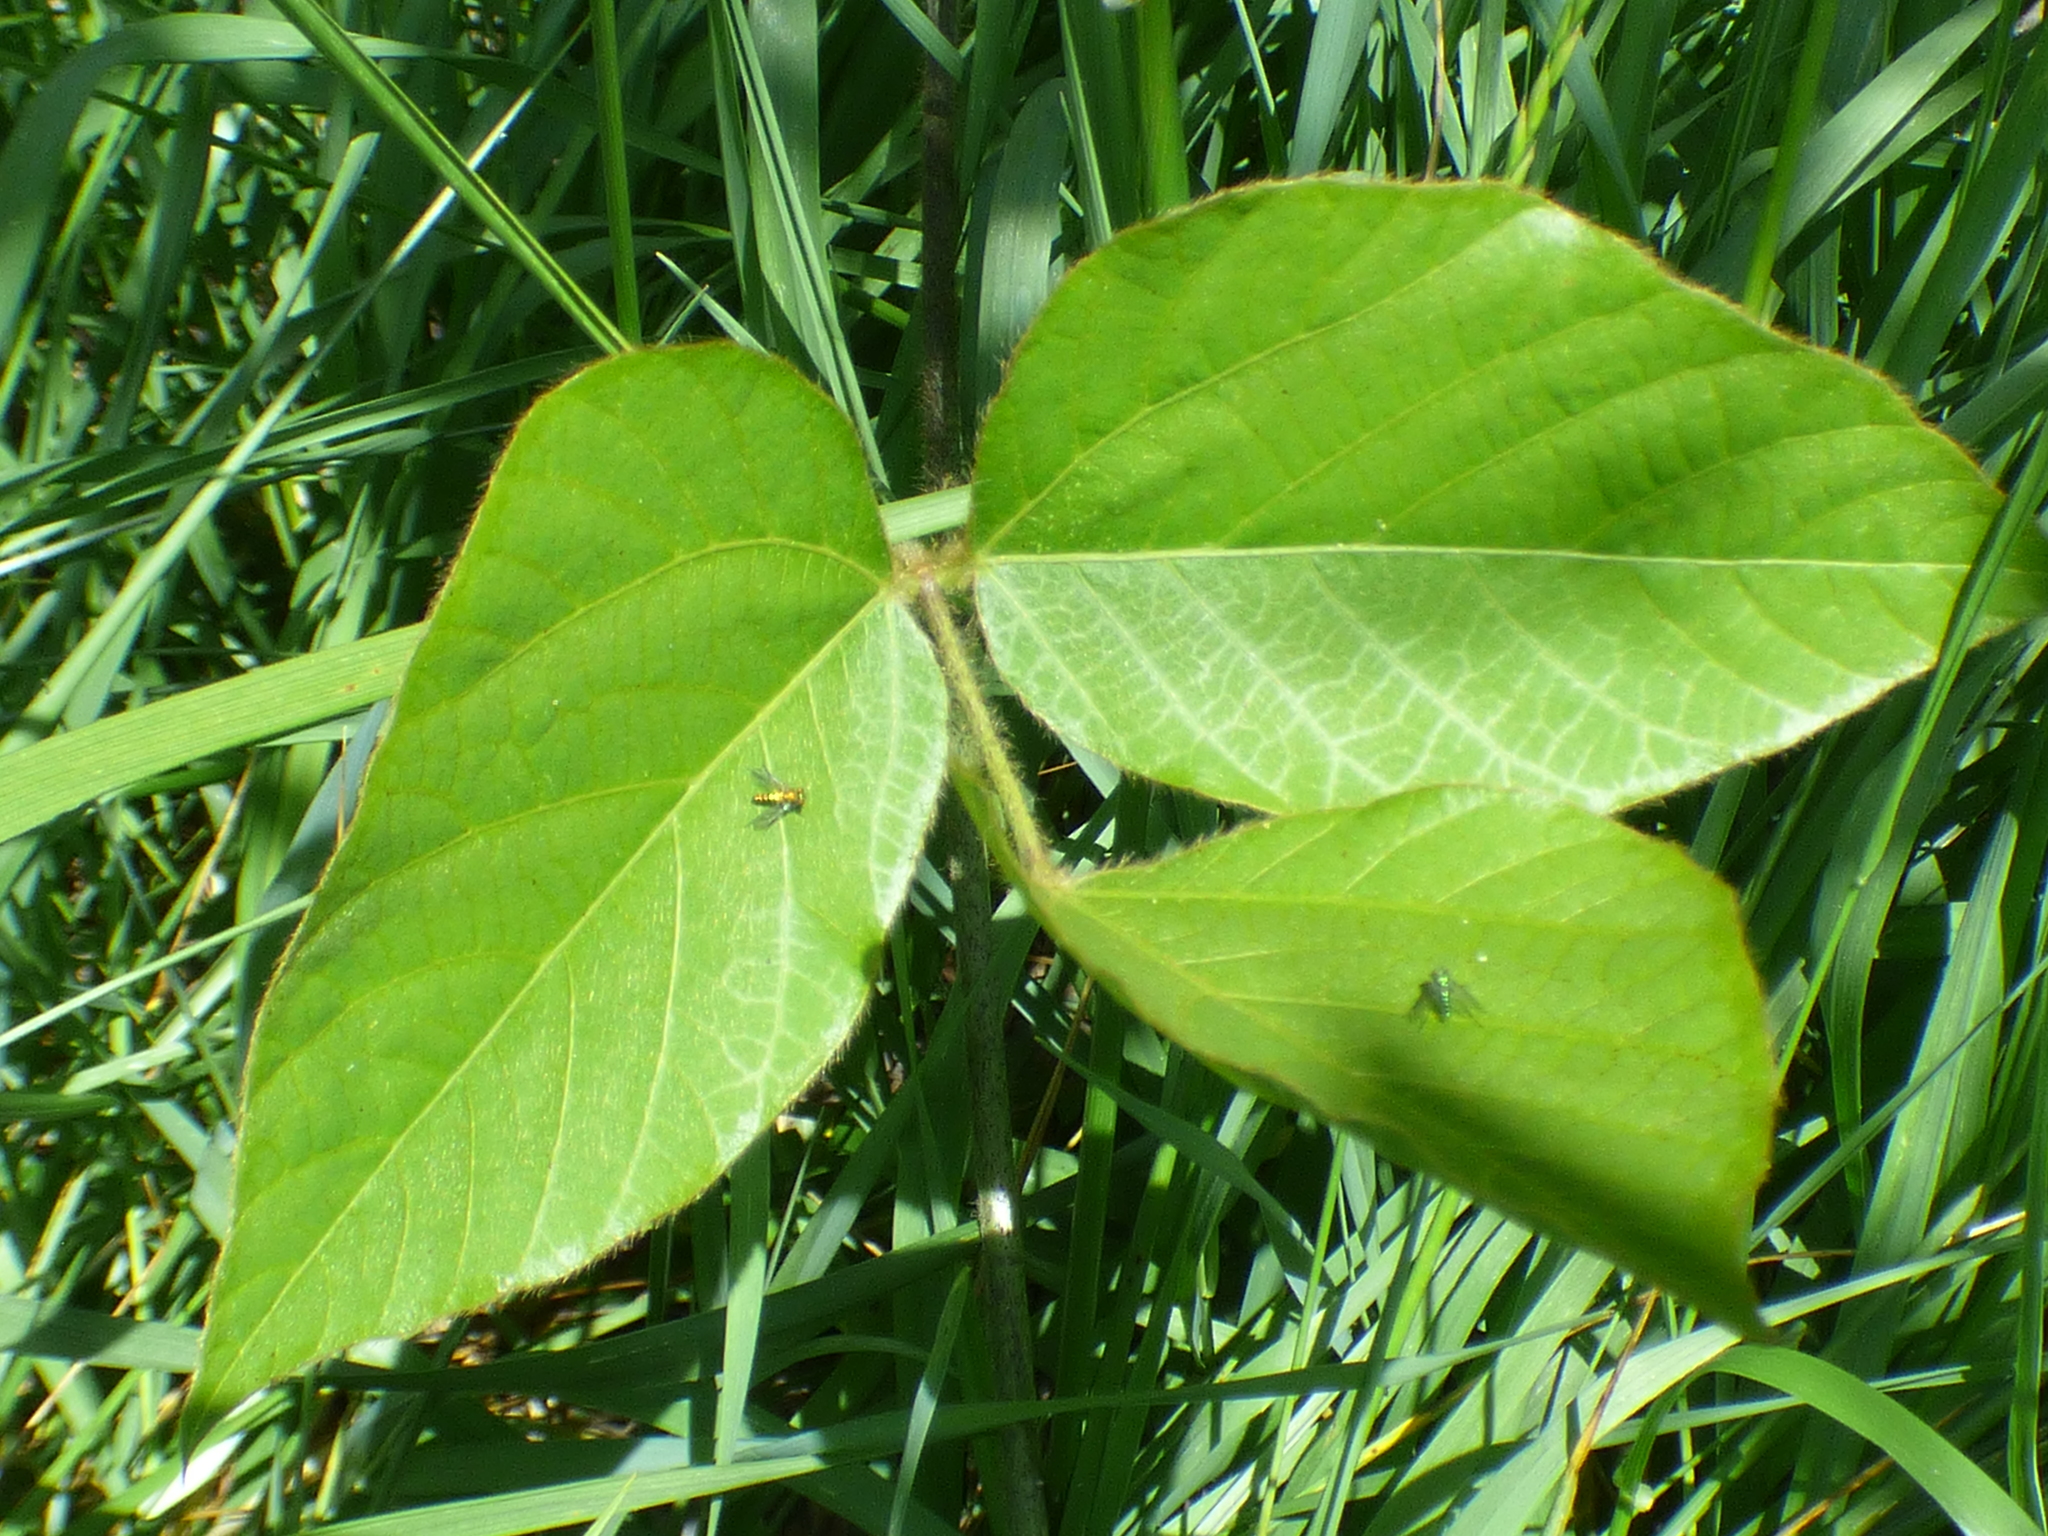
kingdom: Plantae
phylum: Tracheophyta
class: Magnoliopsida
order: Fabales
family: Fabaceae
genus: Pueraria
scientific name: Pueraria montana
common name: Kudzu
